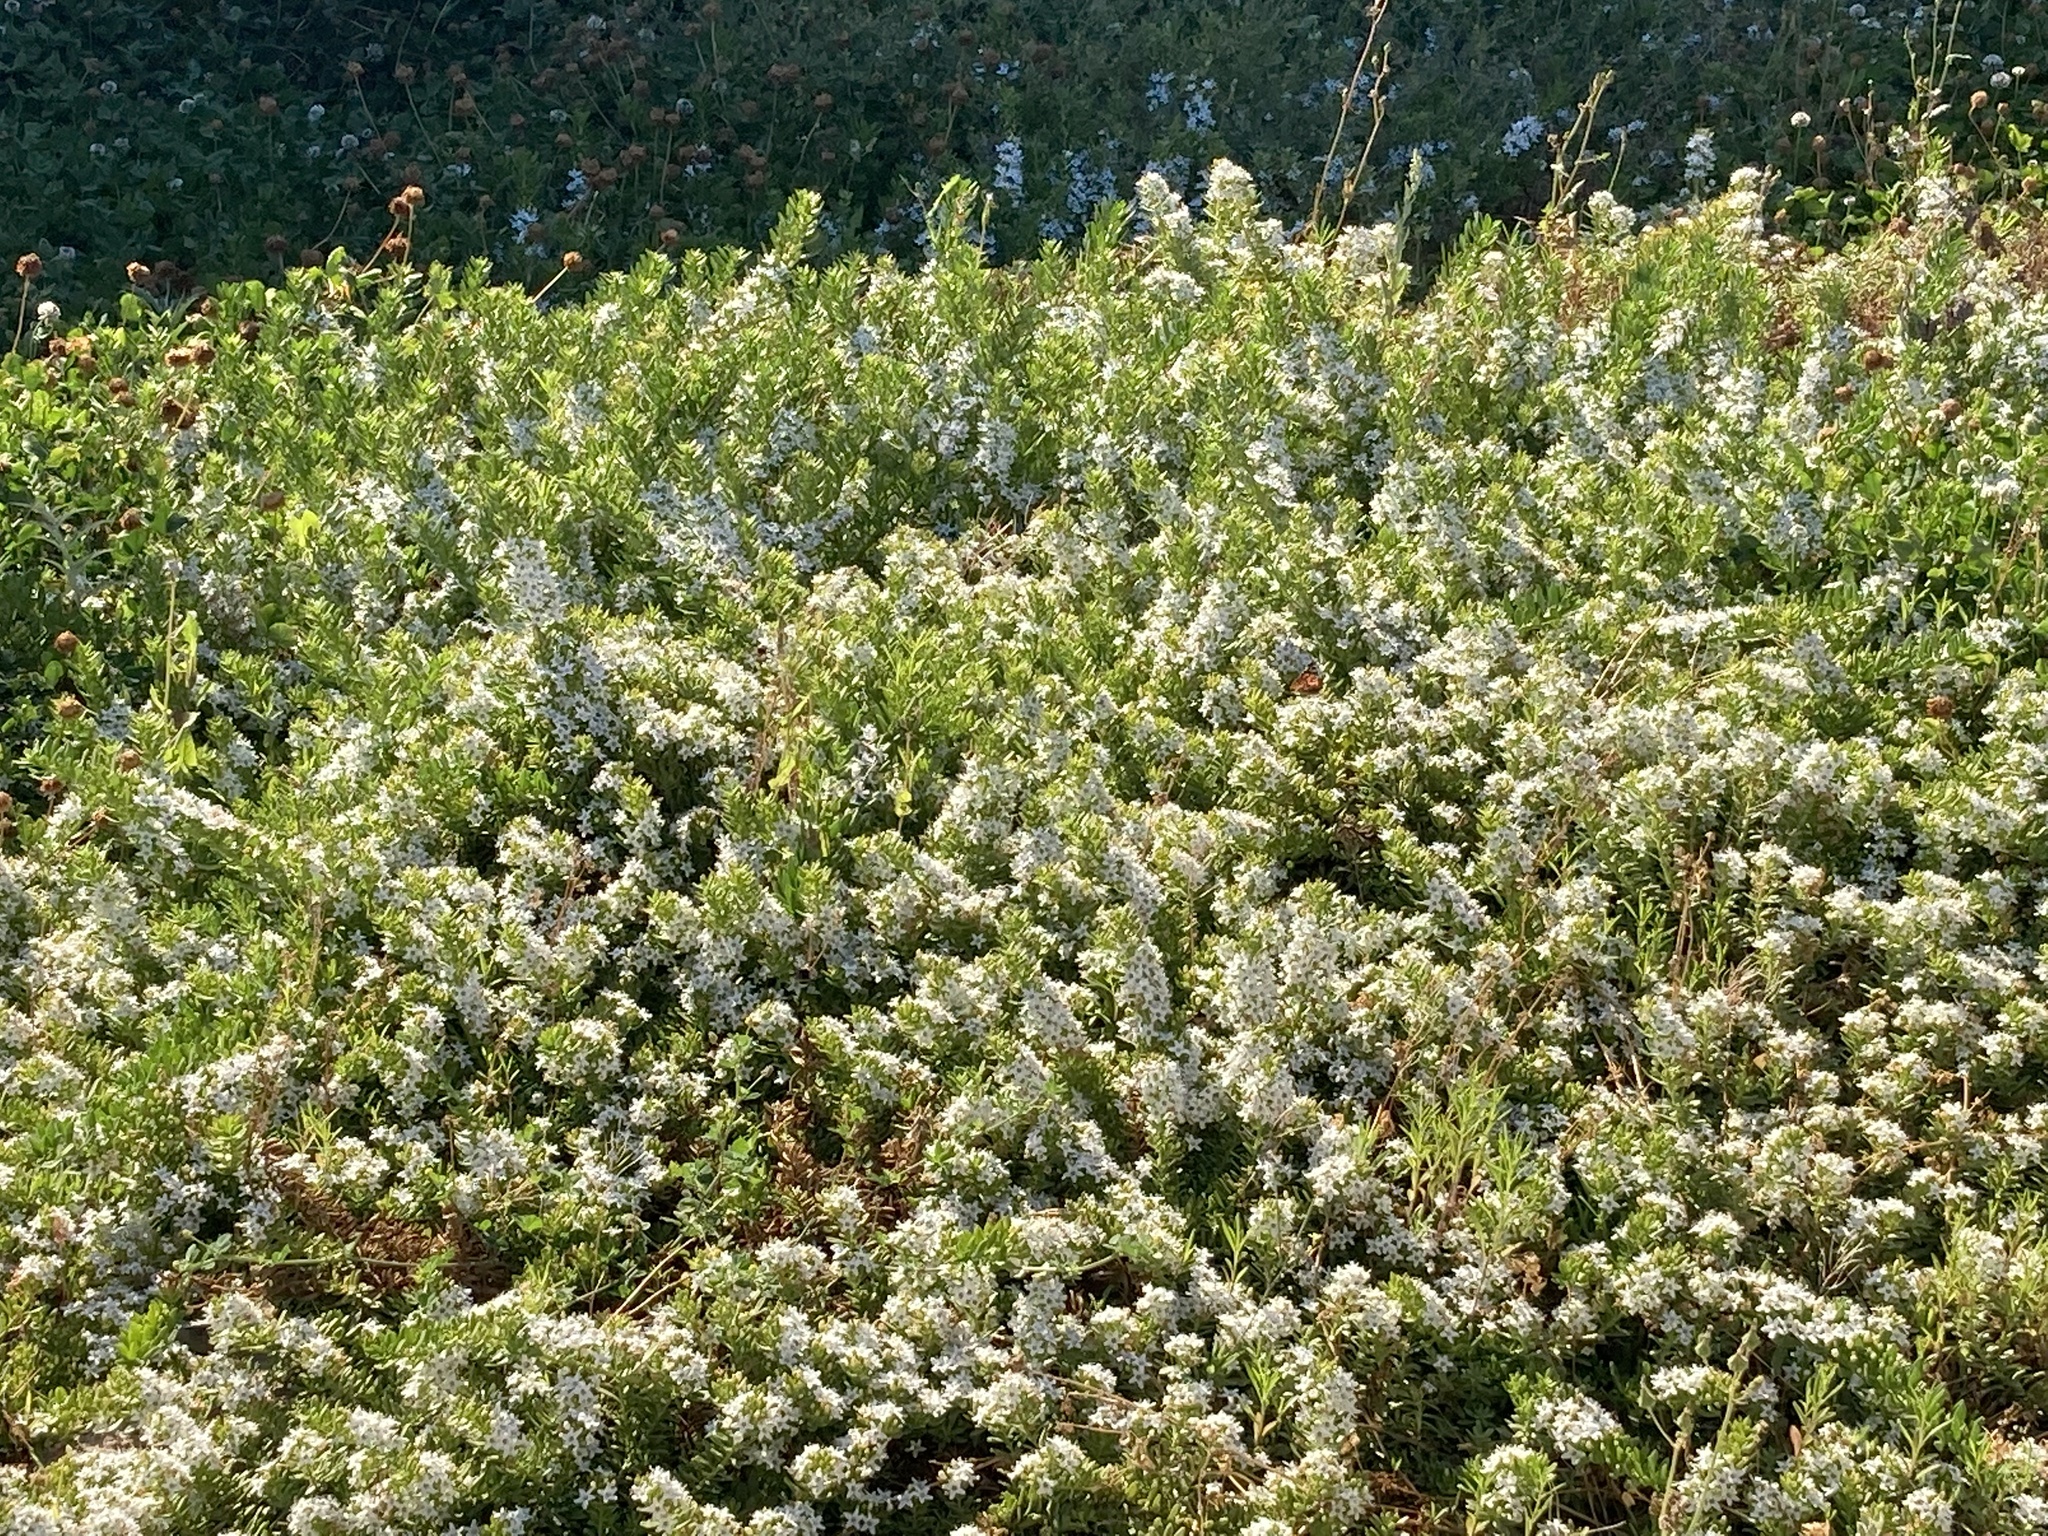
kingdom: Animalia
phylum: Arthropoda
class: Insecta
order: Lepidoptera
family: Nymphalidae
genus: Vanessa
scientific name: Vanessa
